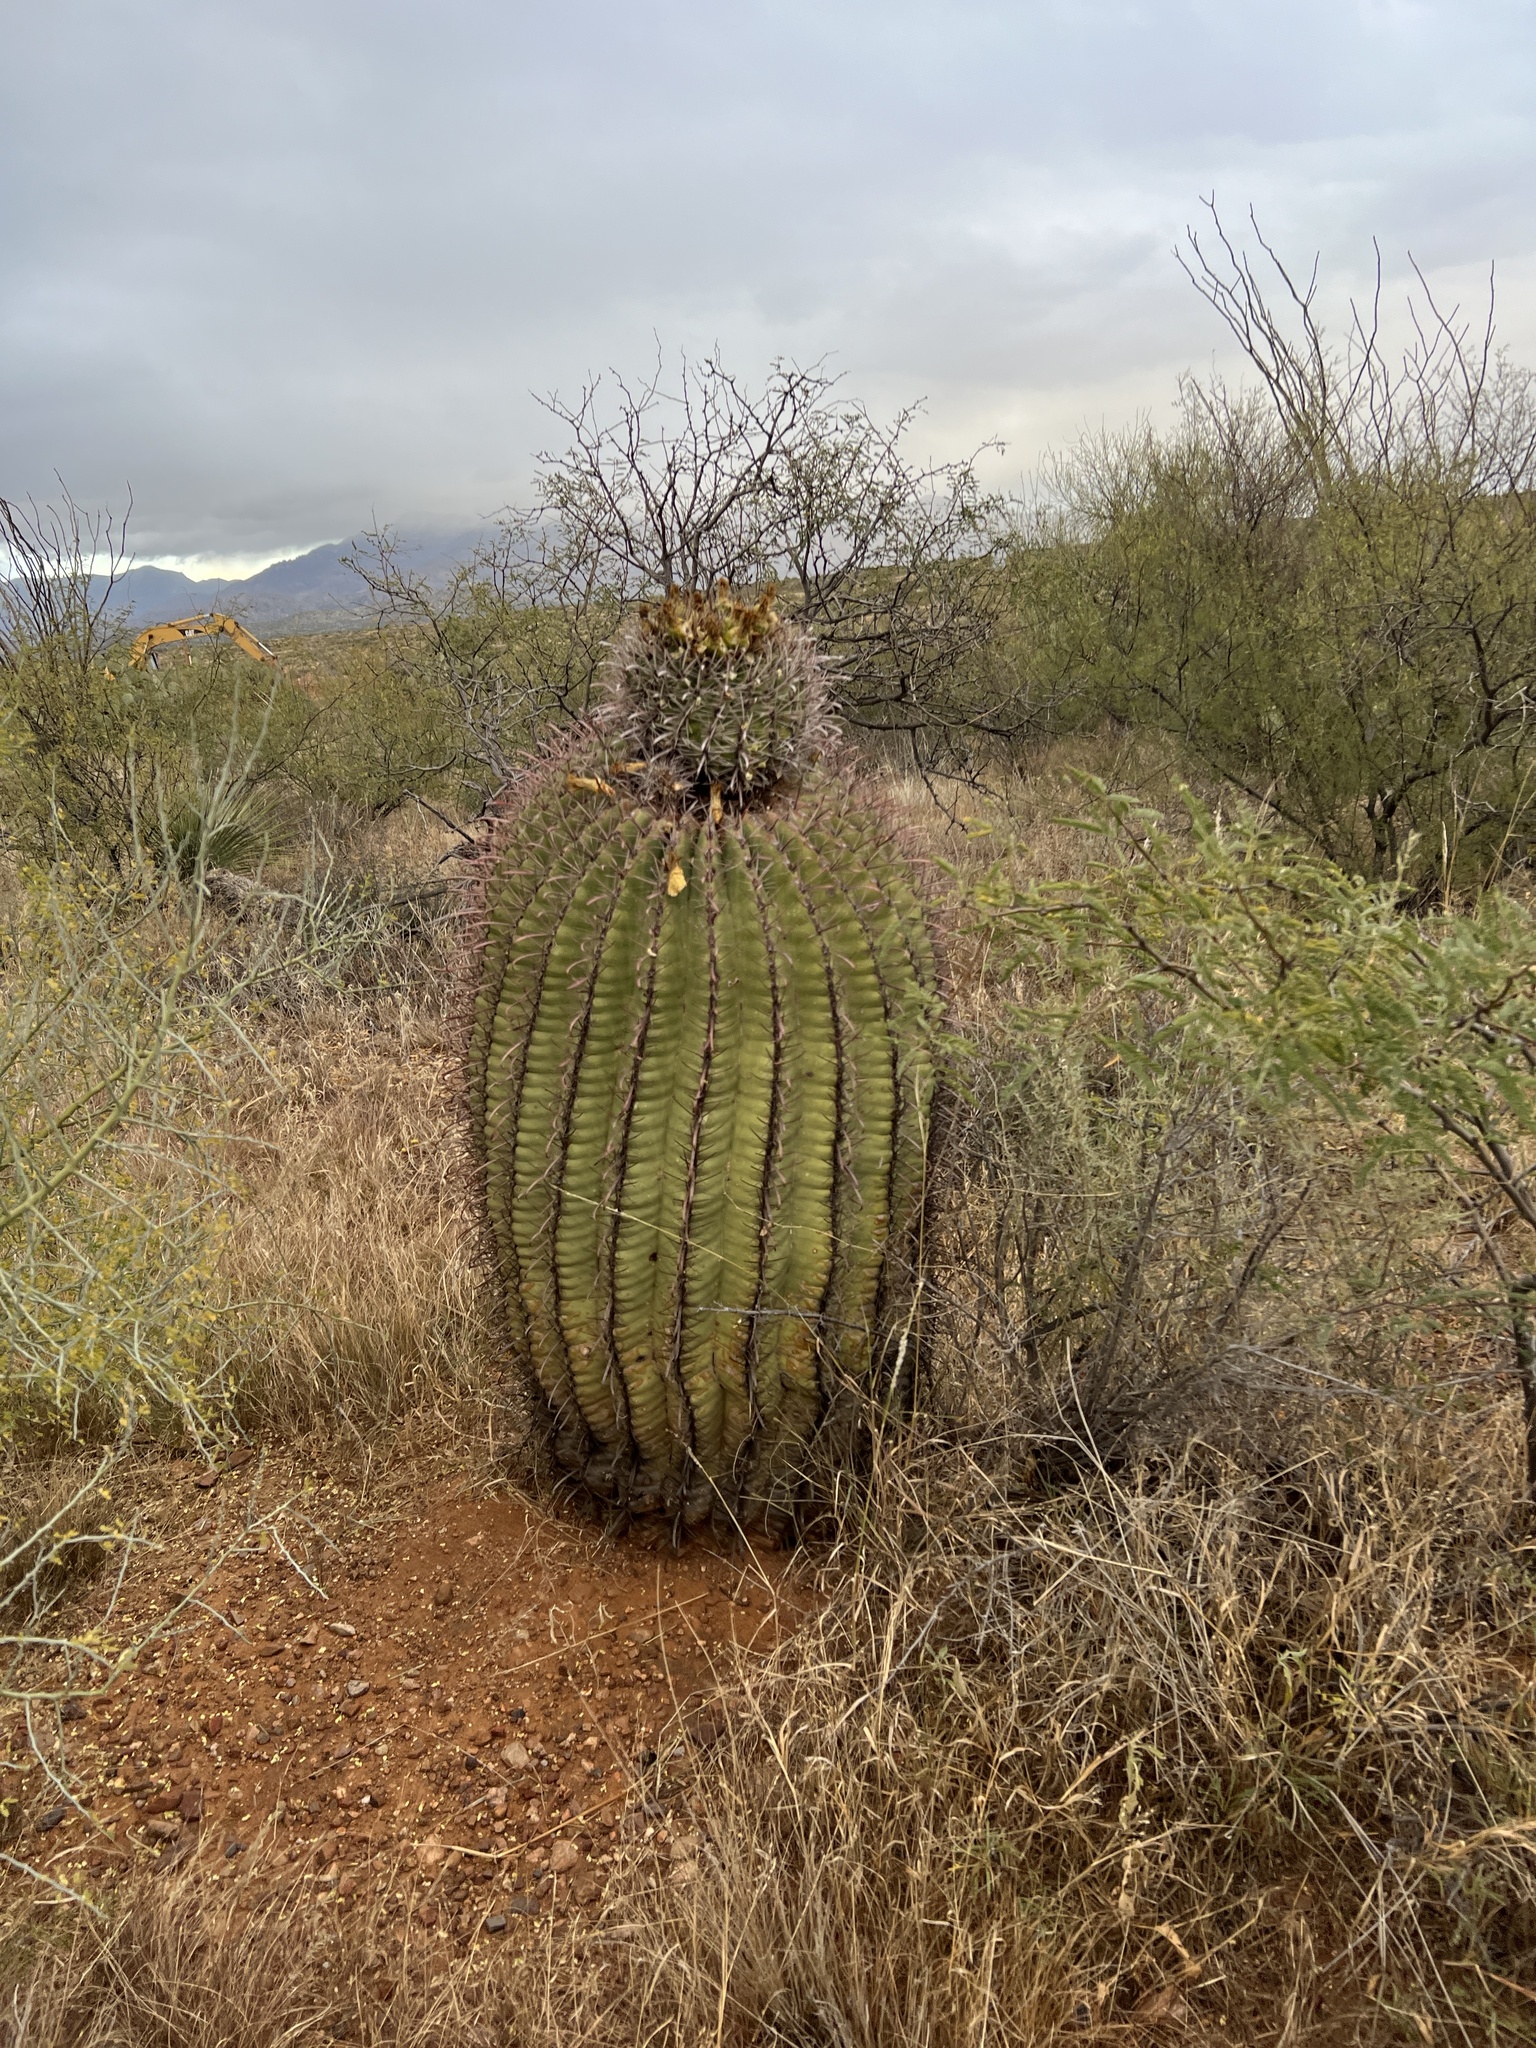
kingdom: Plantae
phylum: Tracheophyta
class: Magnoliopsida
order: Caryophyllales
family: Cactaceae
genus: Ferocactus
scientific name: Ferocactus wislizeni
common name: Candy barrel cactus
